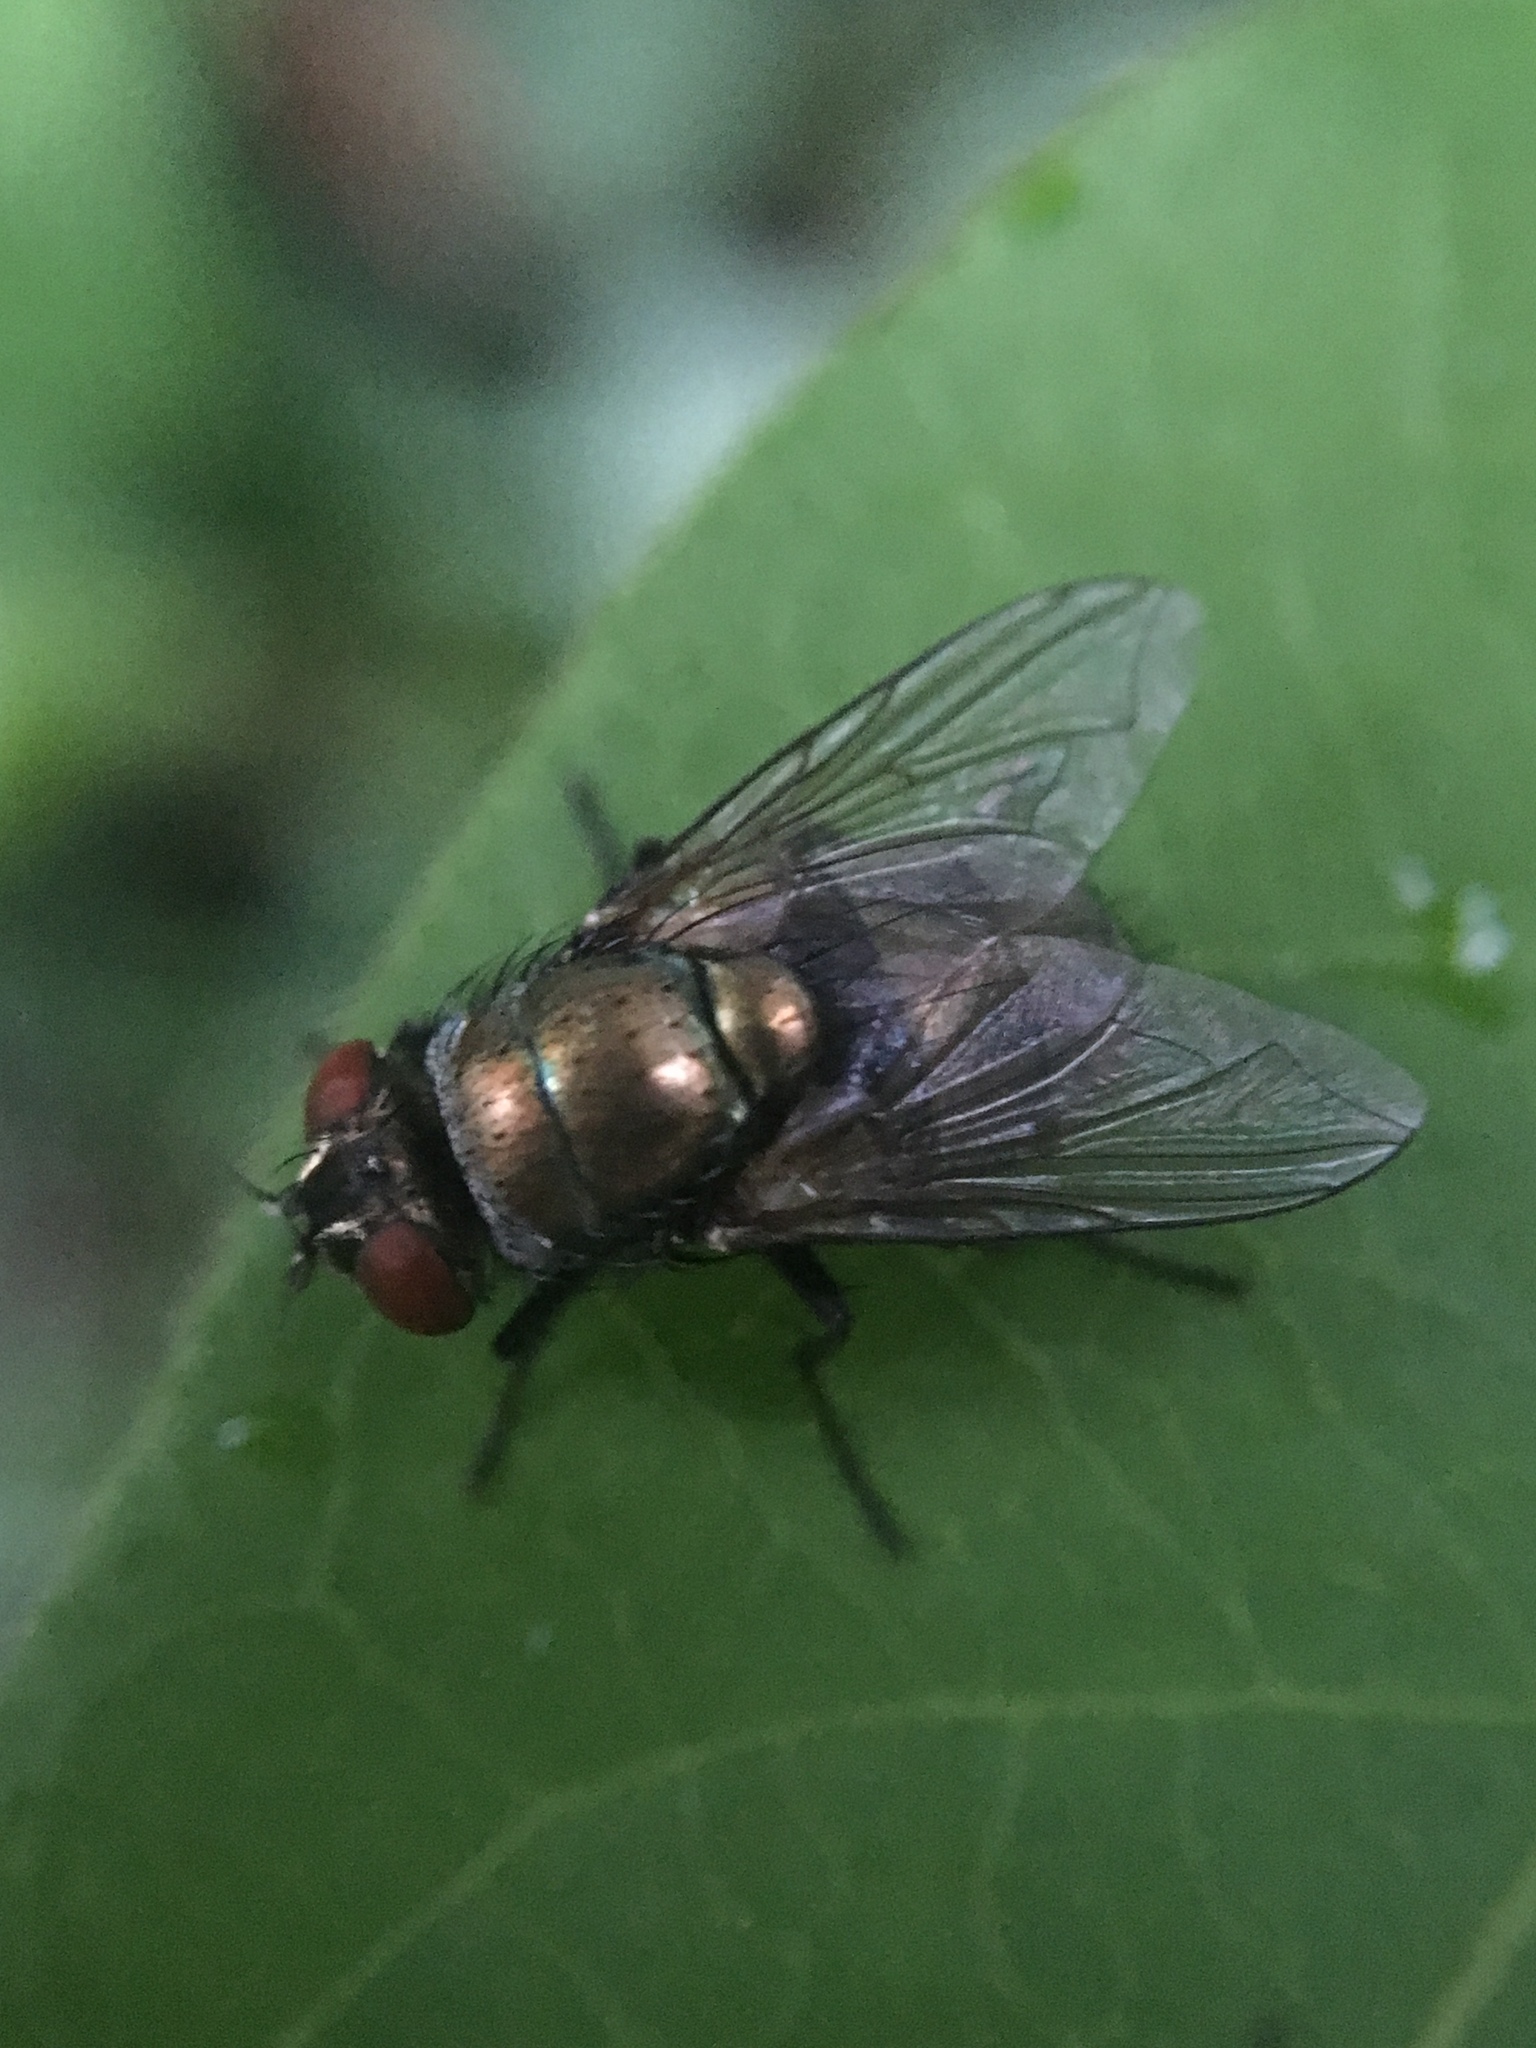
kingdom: Animalia
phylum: Arthropoda
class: Insecta
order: Diptera
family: Calliphoridae
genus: Lucilia
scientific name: Lucilia cuprina
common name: Sheep blow fly
